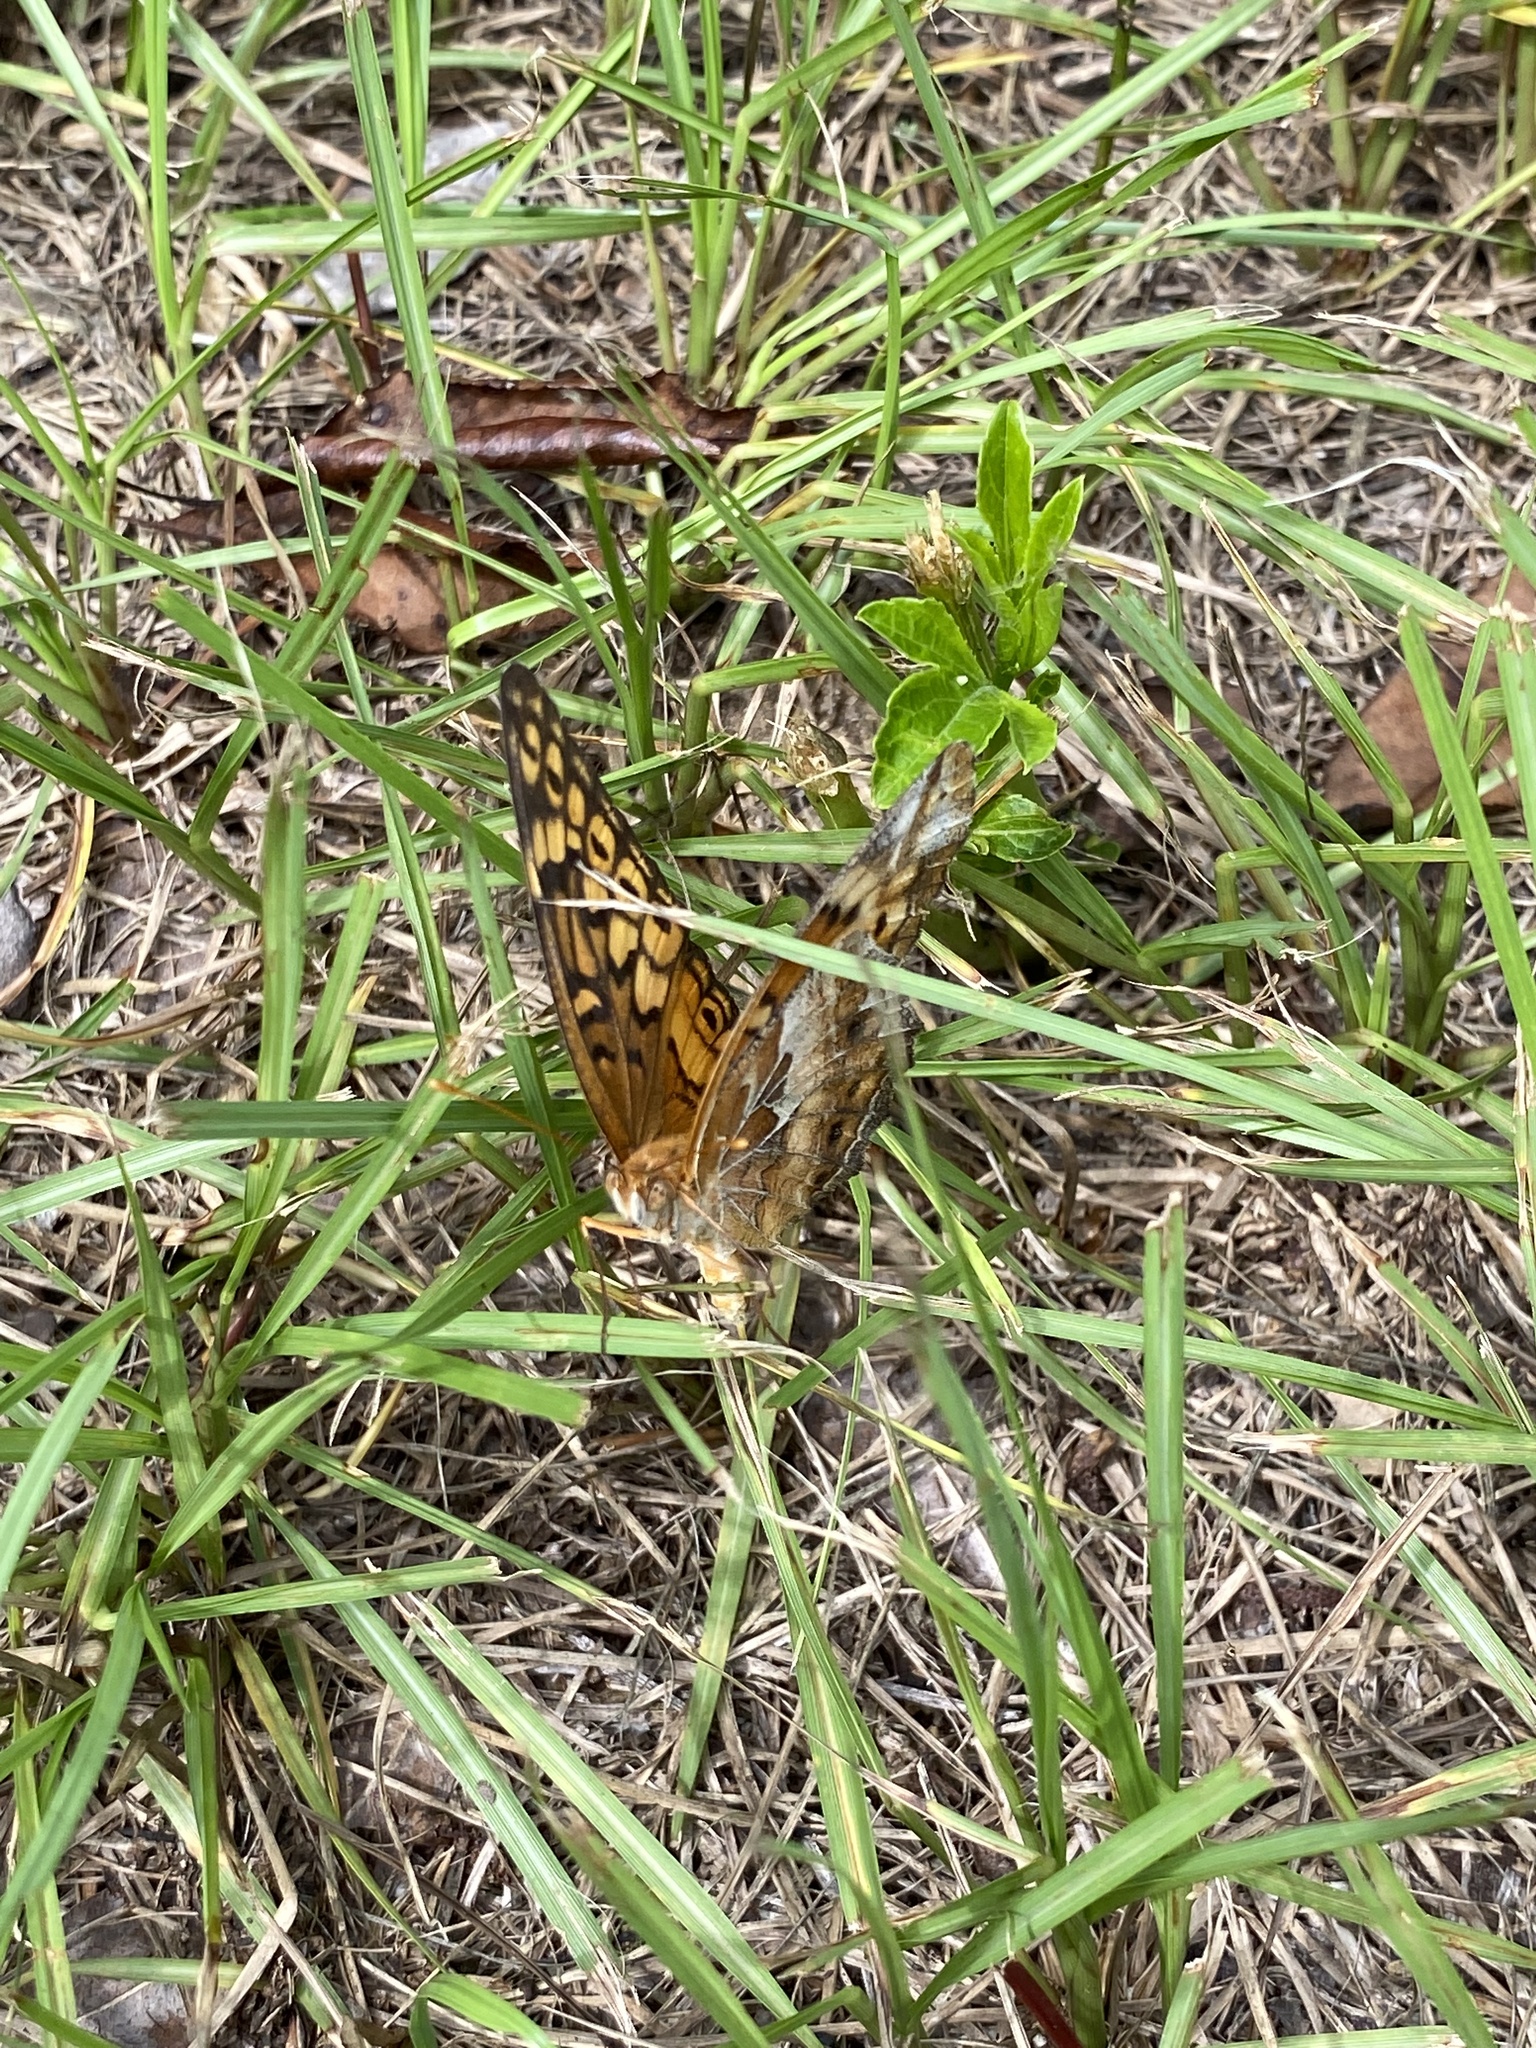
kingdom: Animalia
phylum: Arthropoda
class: Insecta
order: Lepidoptera
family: Nymphalidae
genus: Euptoieta
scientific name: Euptoieta claudia
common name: Variegated fritillary
